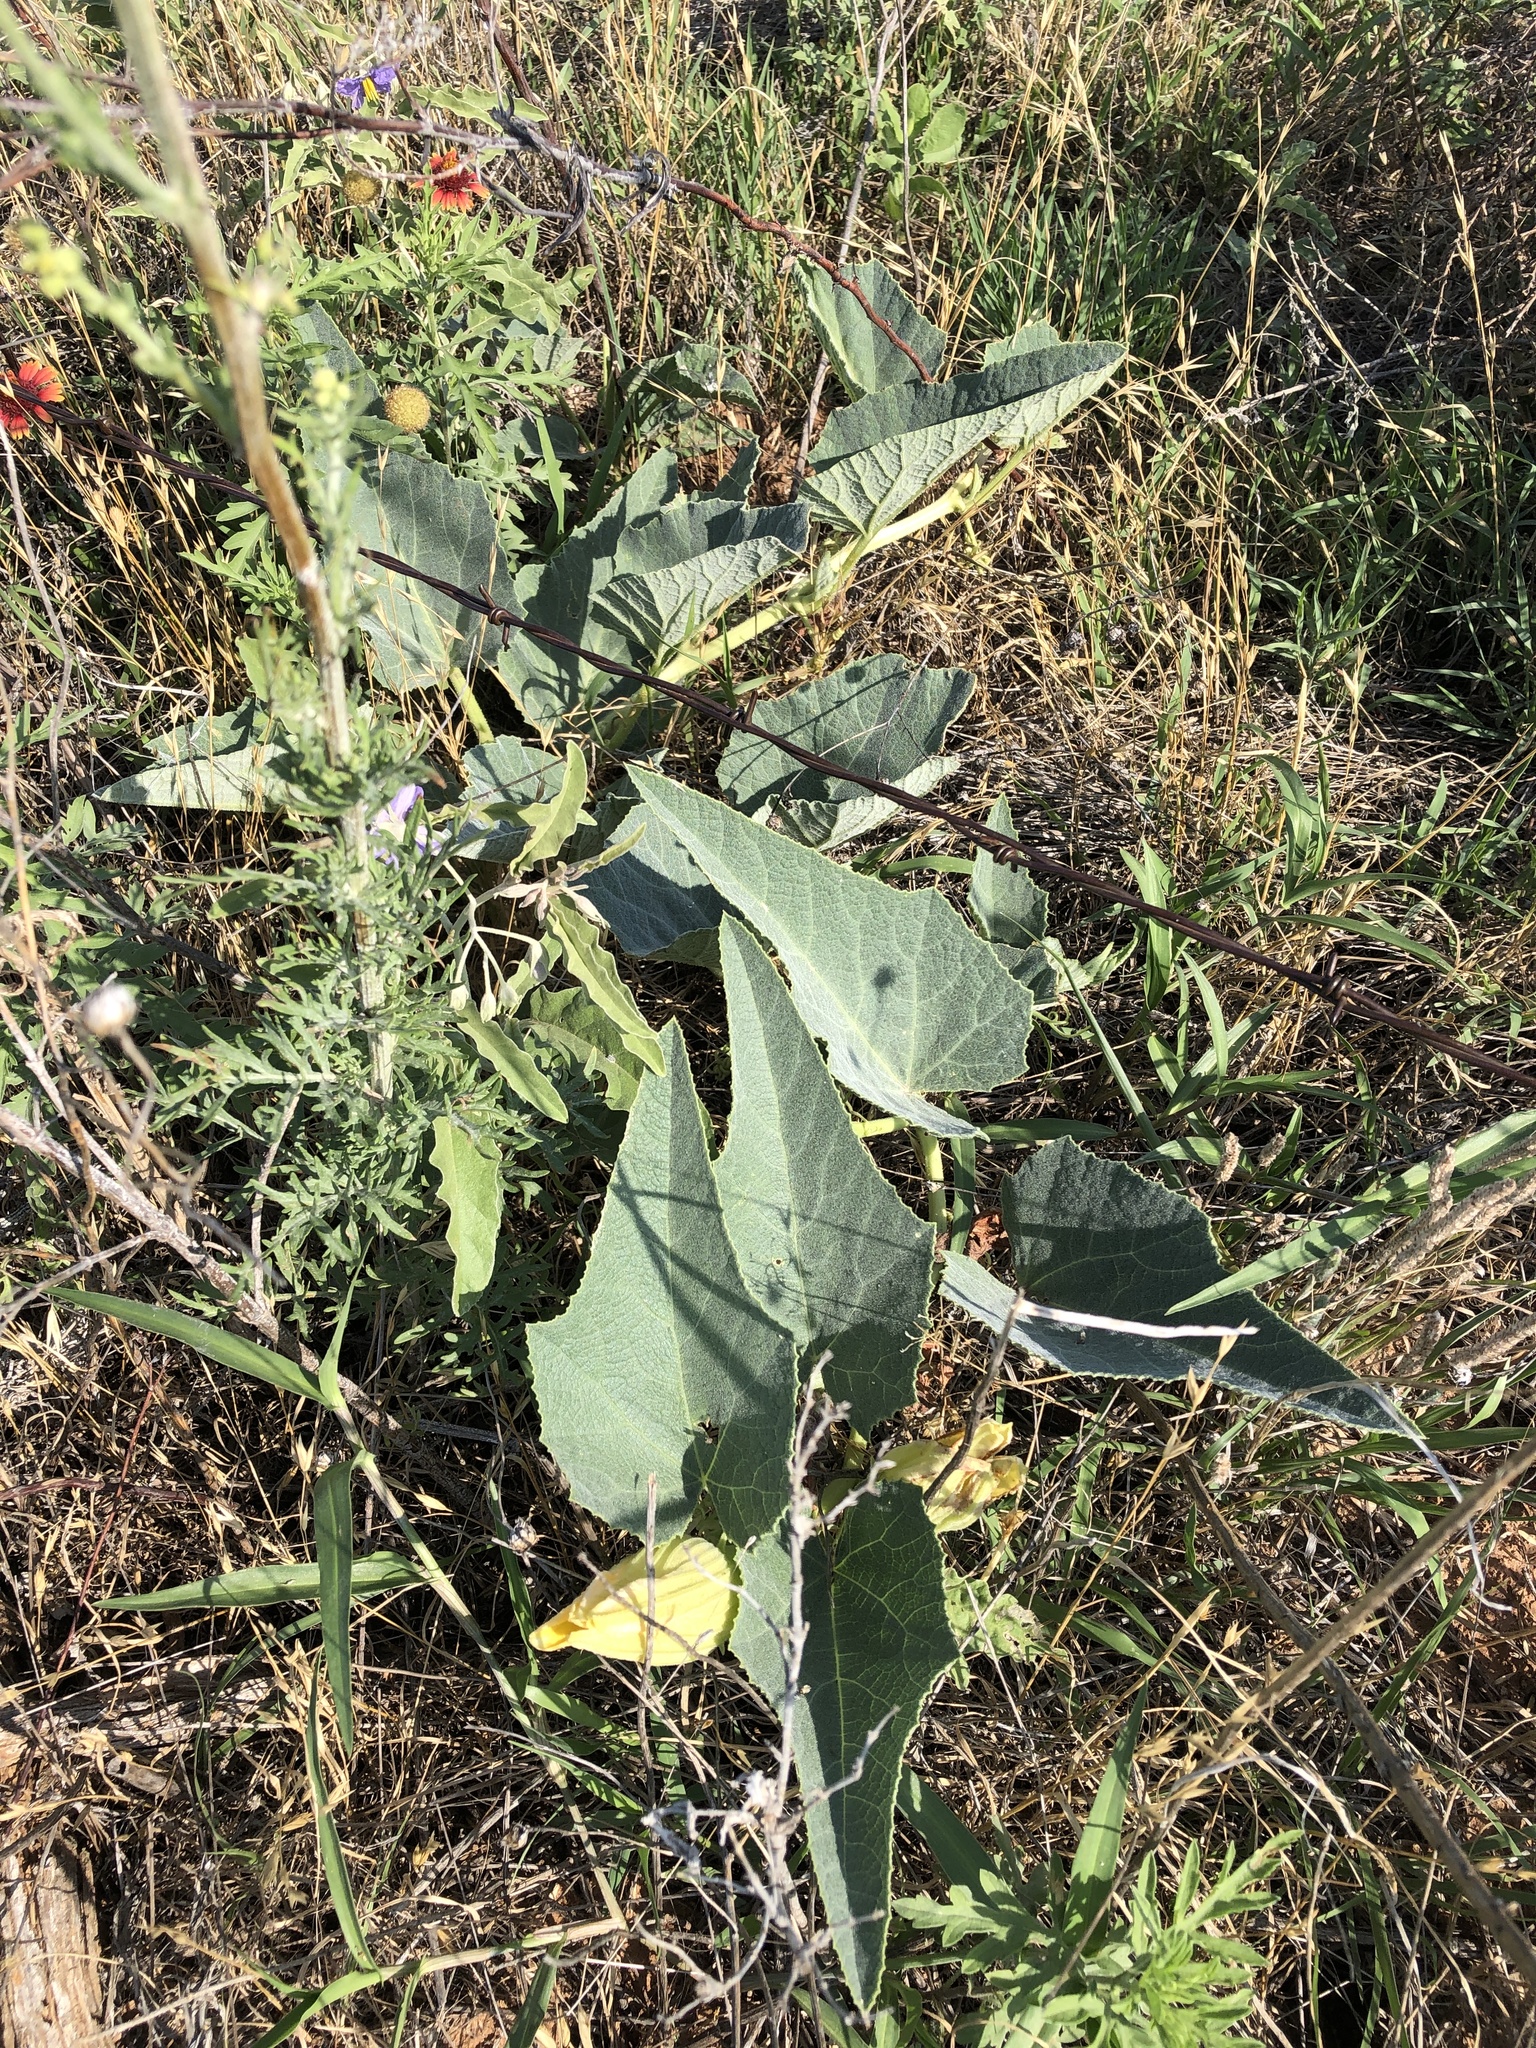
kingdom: Plantae
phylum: Tracheophyta
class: Magnoliopsida
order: Cucurbitales
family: Cucurbitaceae
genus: Cucurbita
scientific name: Cucurbita foetidissima
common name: Buffalo gourd
